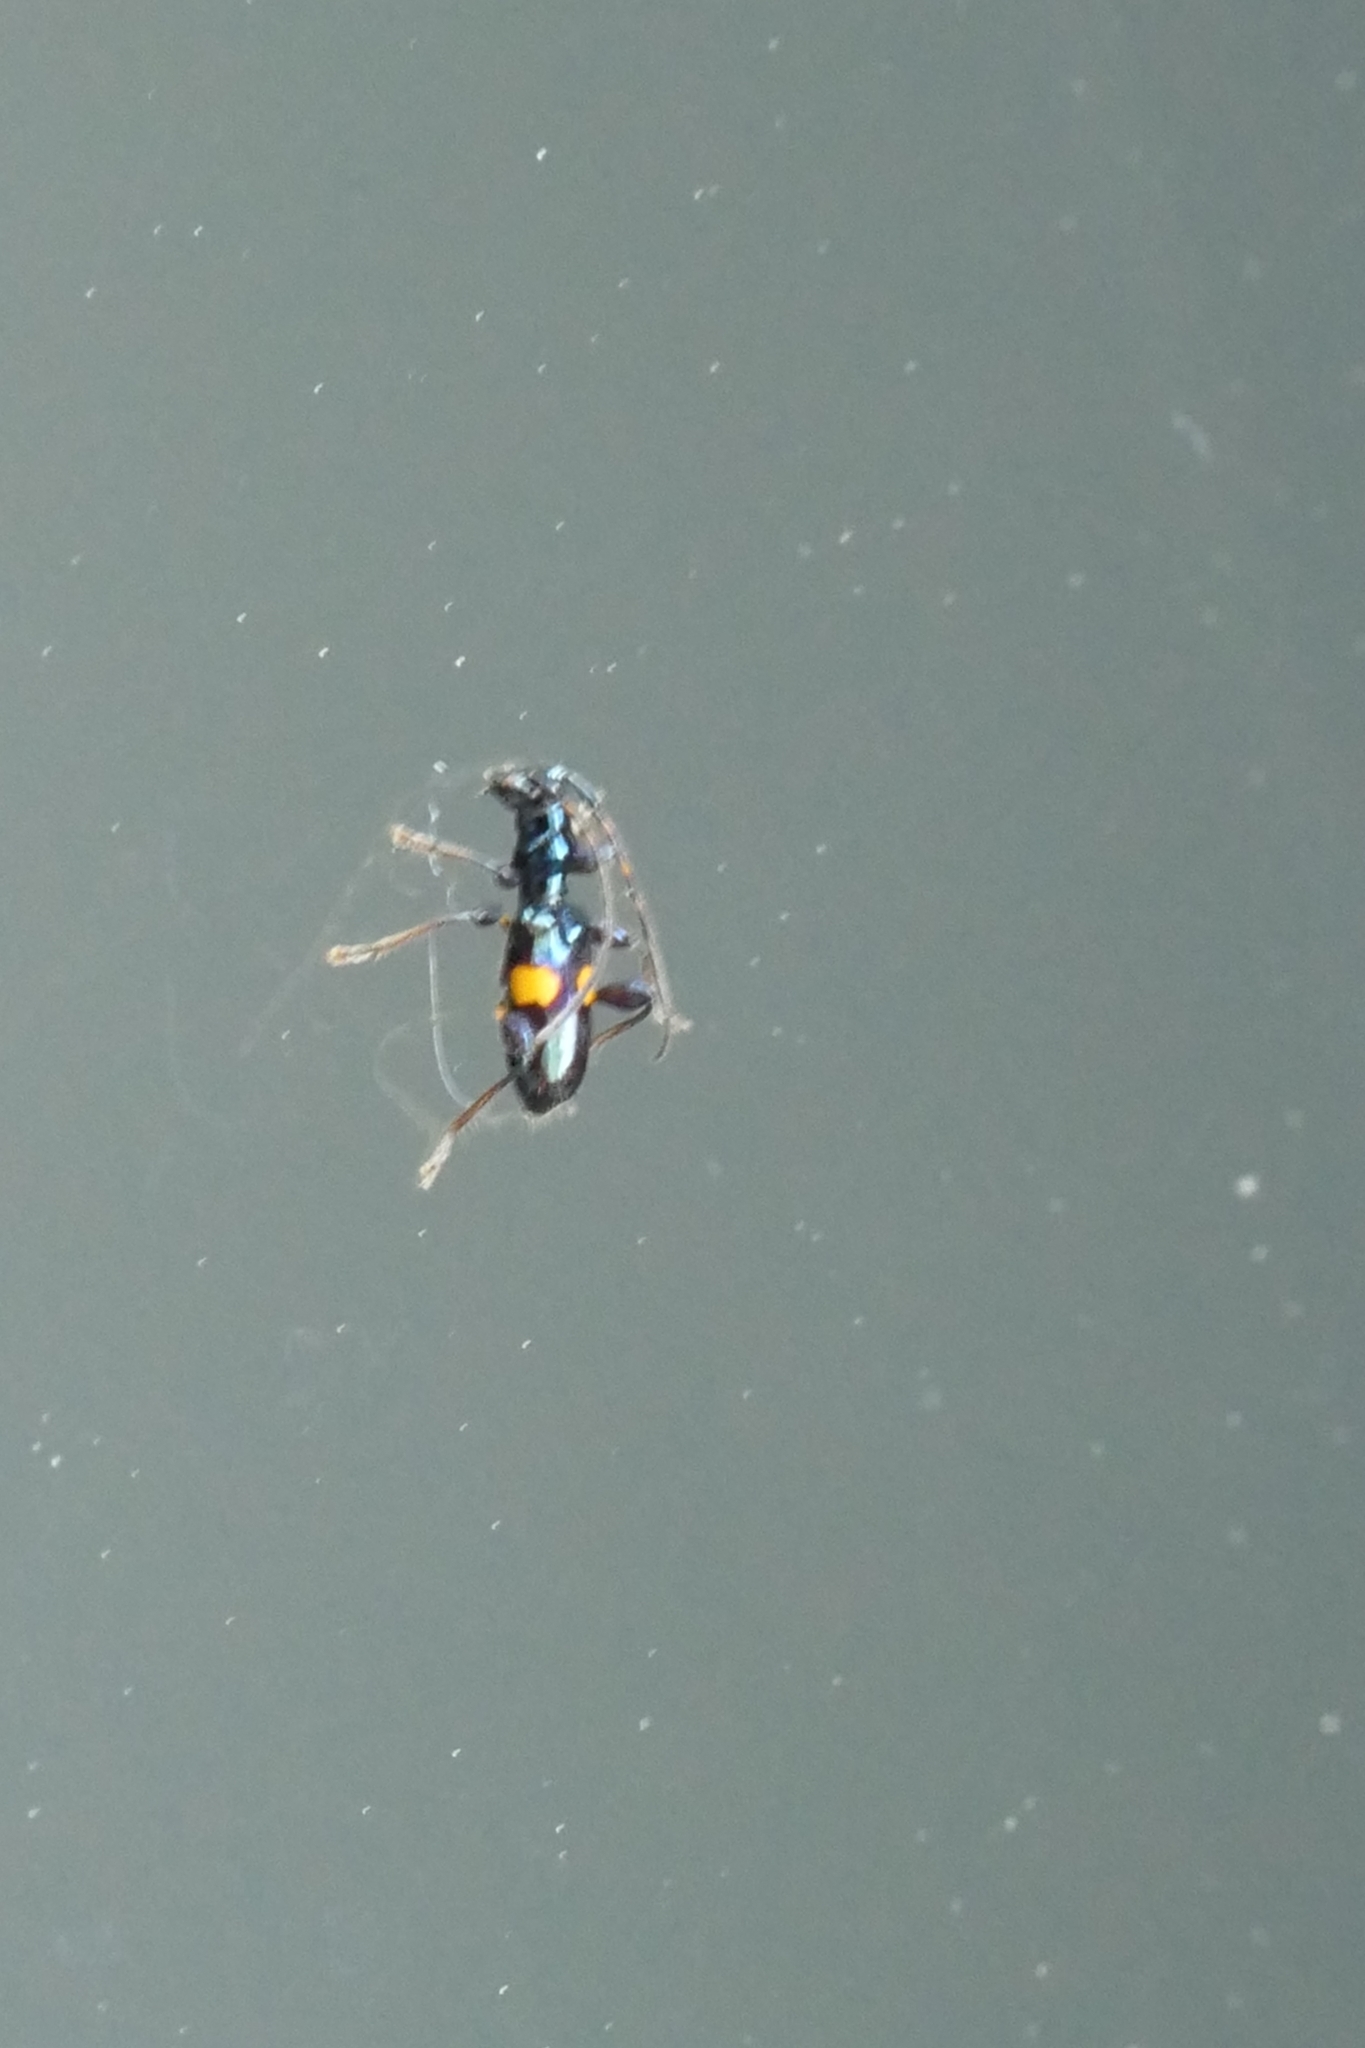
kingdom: Animalia
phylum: Arthropoda
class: Insecta
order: Coleoptera
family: Cerambycidae
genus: Zorion
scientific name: Zorion guttigerum
